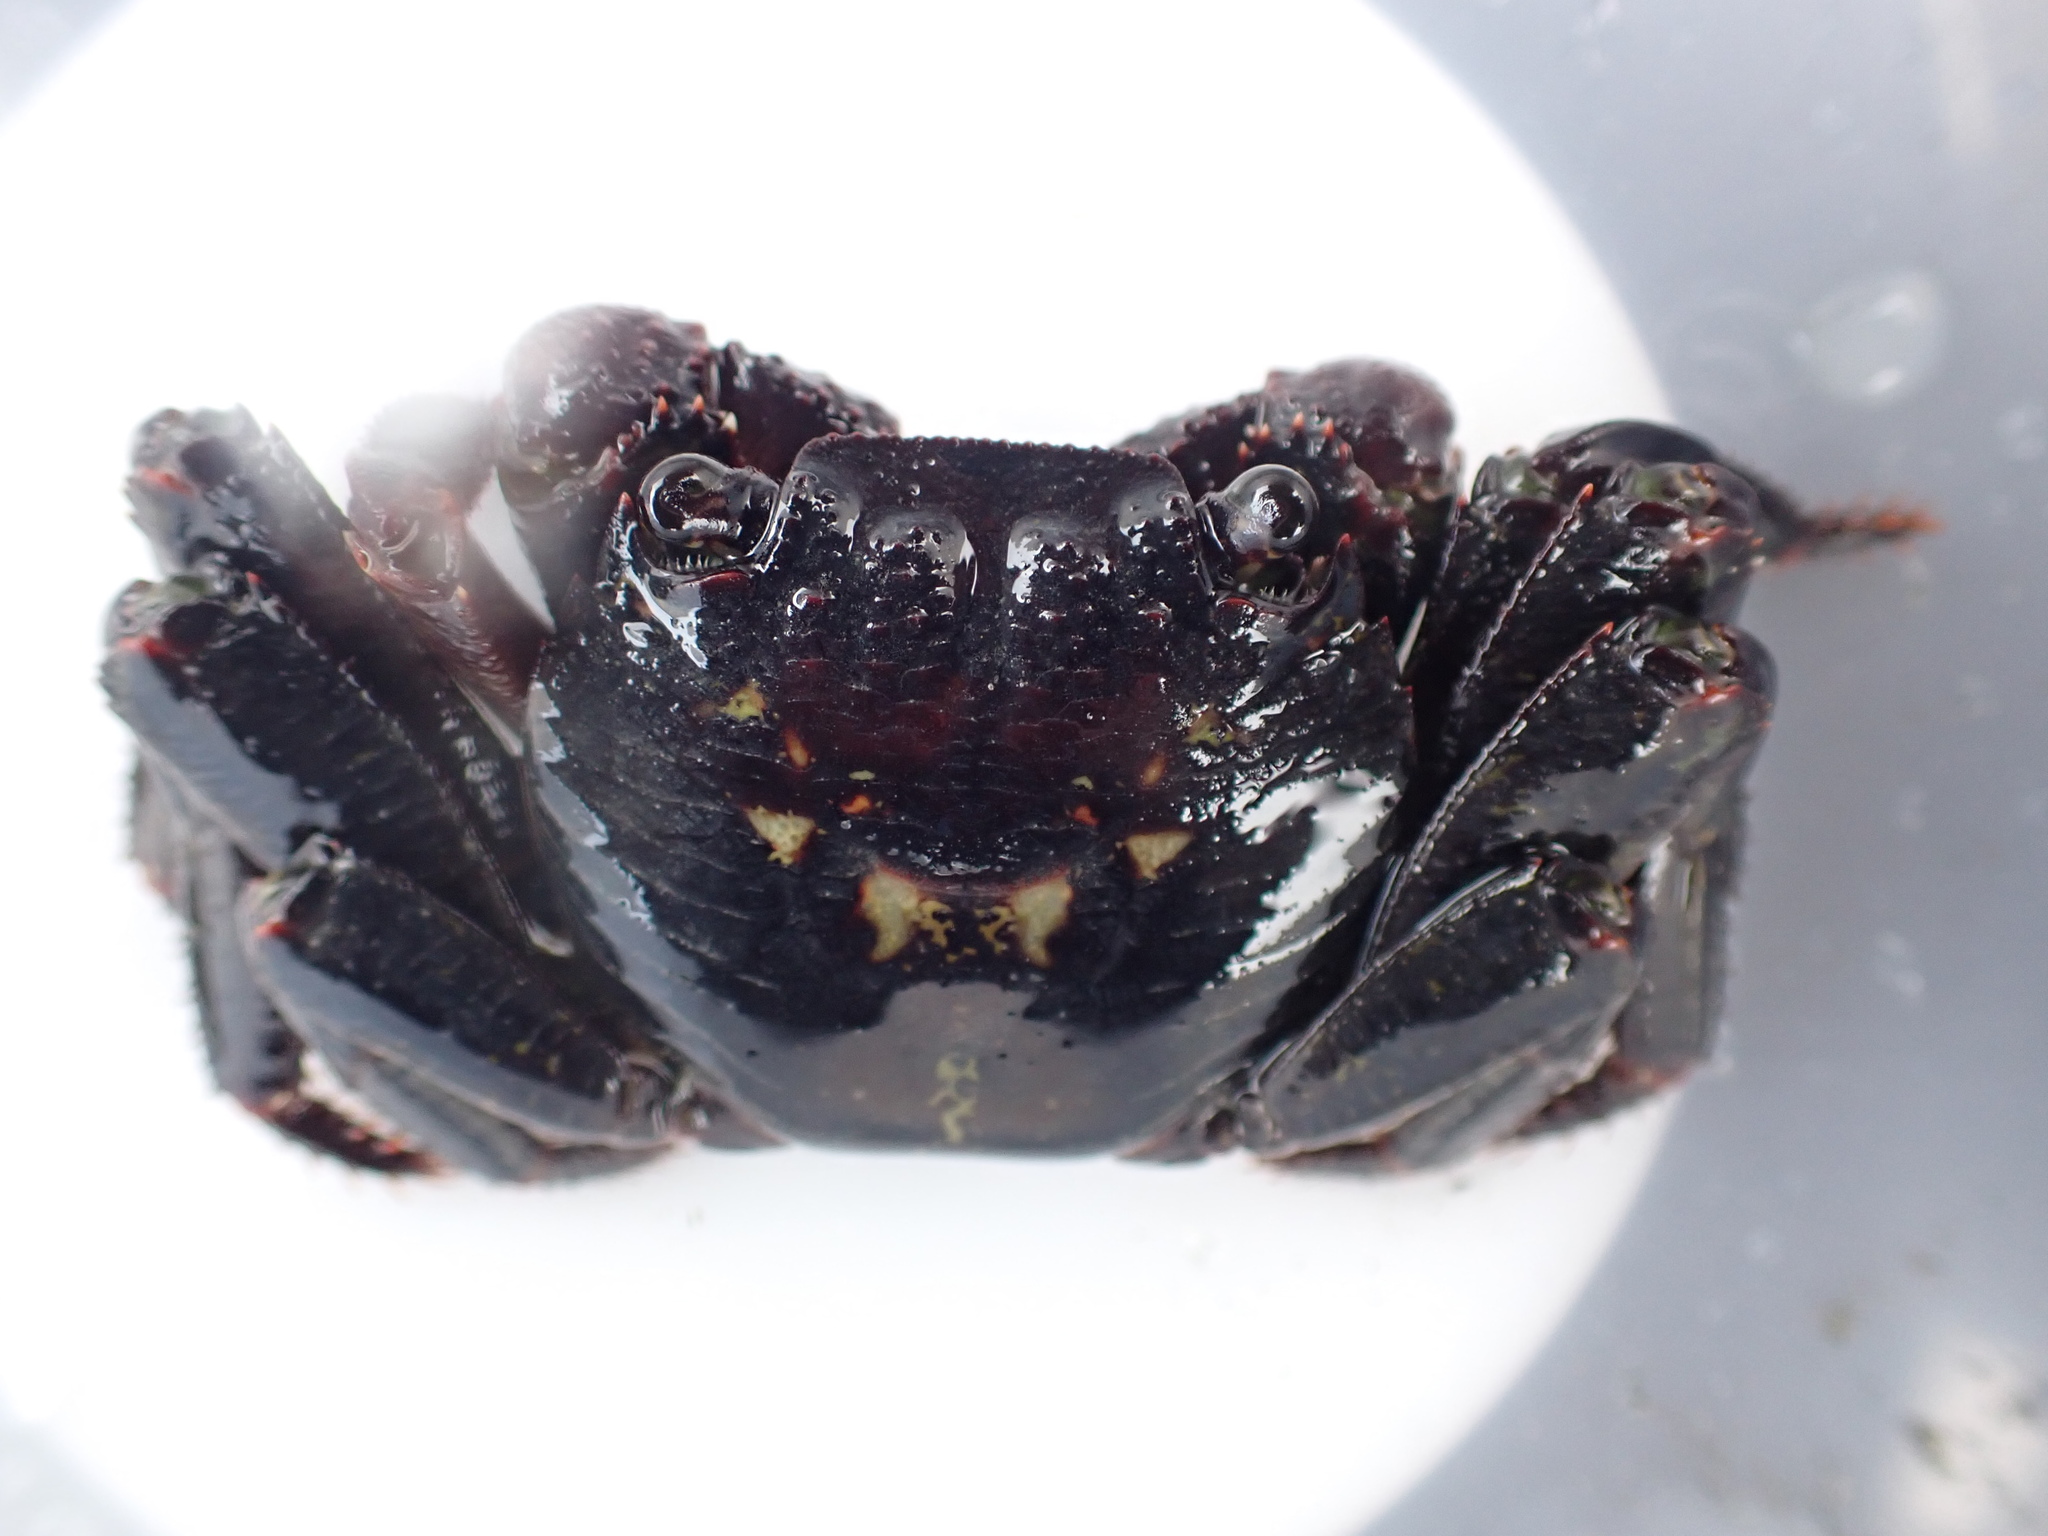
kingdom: Animalia
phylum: Arthropoda
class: Malacostraca
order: Decapoda
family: Grapsidae
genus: Leptograpsus
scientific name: Leptograpsus variegatus
